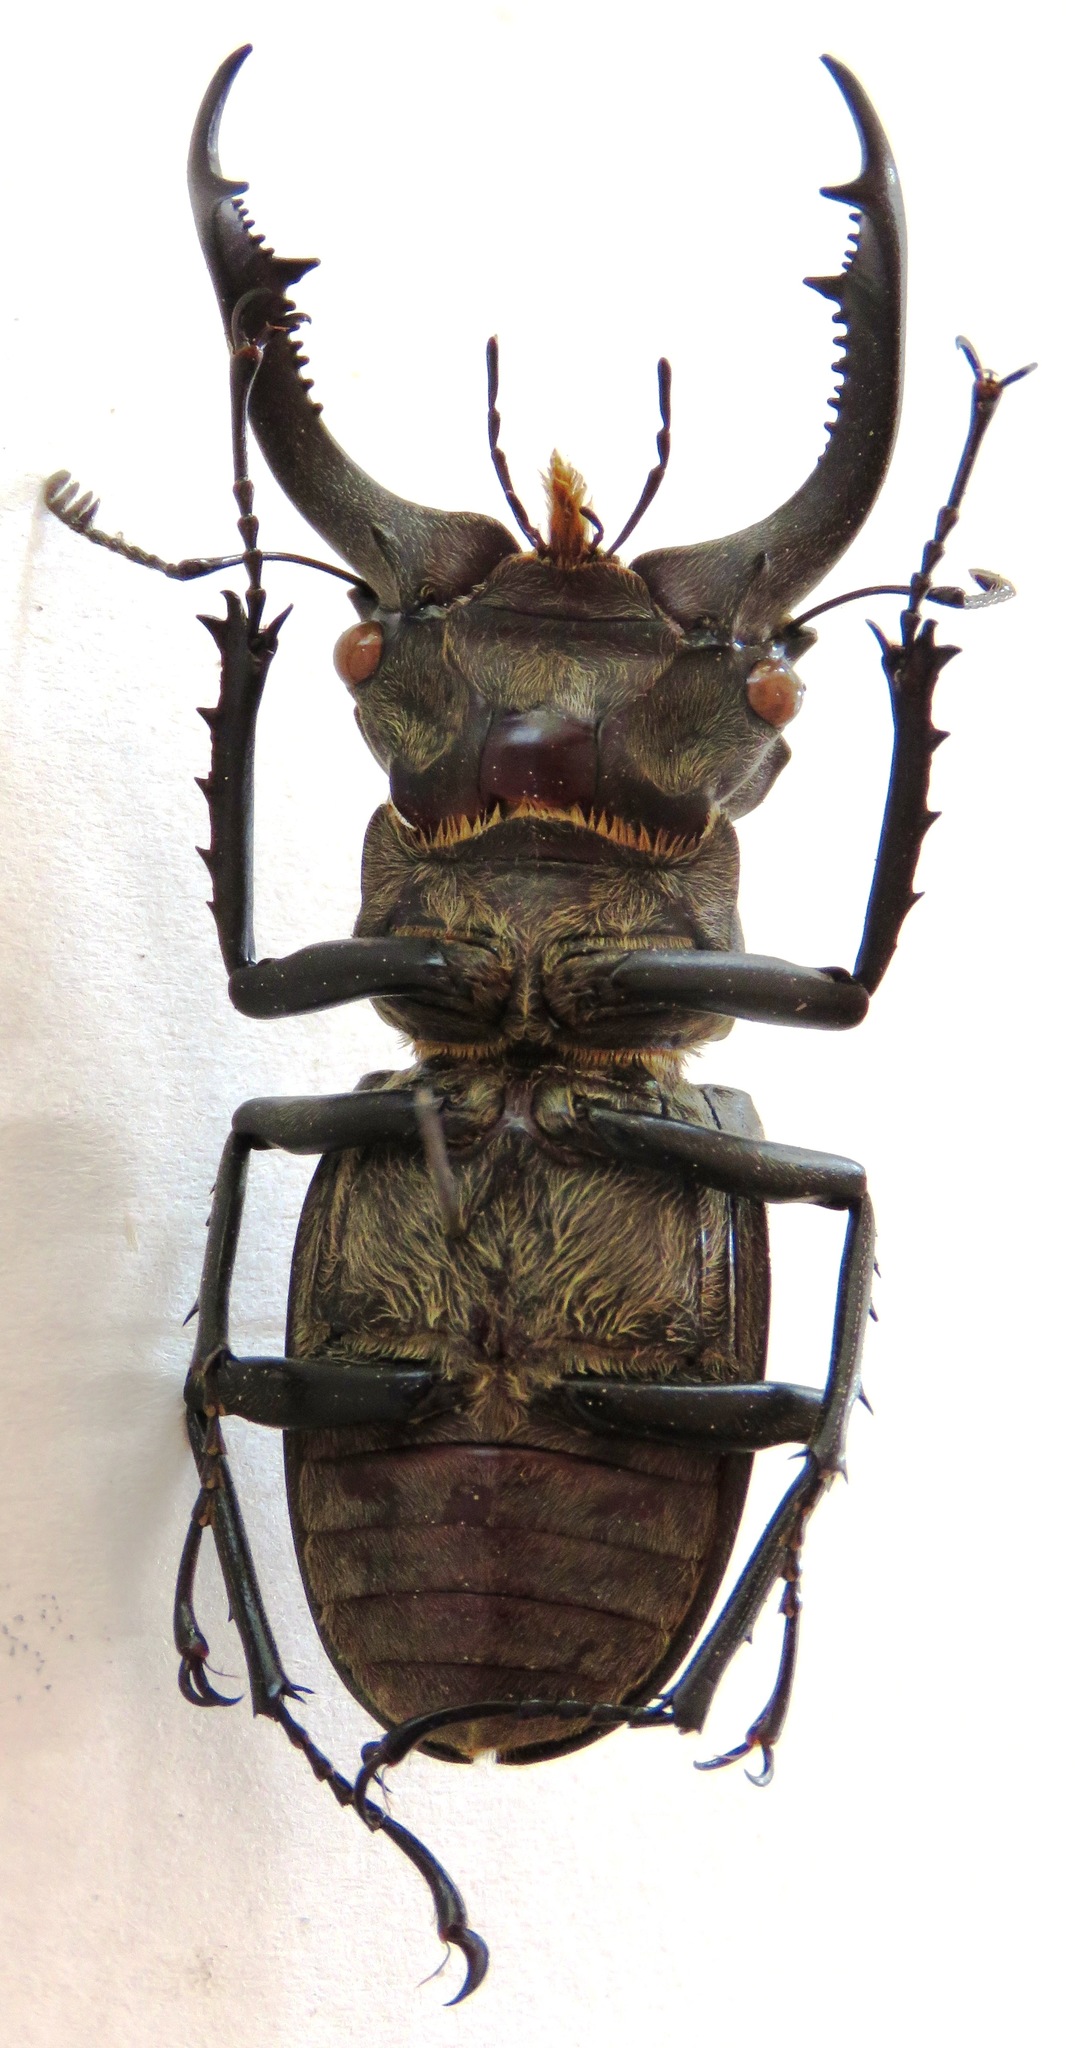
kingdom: Animalia
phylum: Arthropoda
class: Insecta
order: Coleoptera
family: Lucanidae
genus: Lucanus
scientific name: Lucanus nobilis
